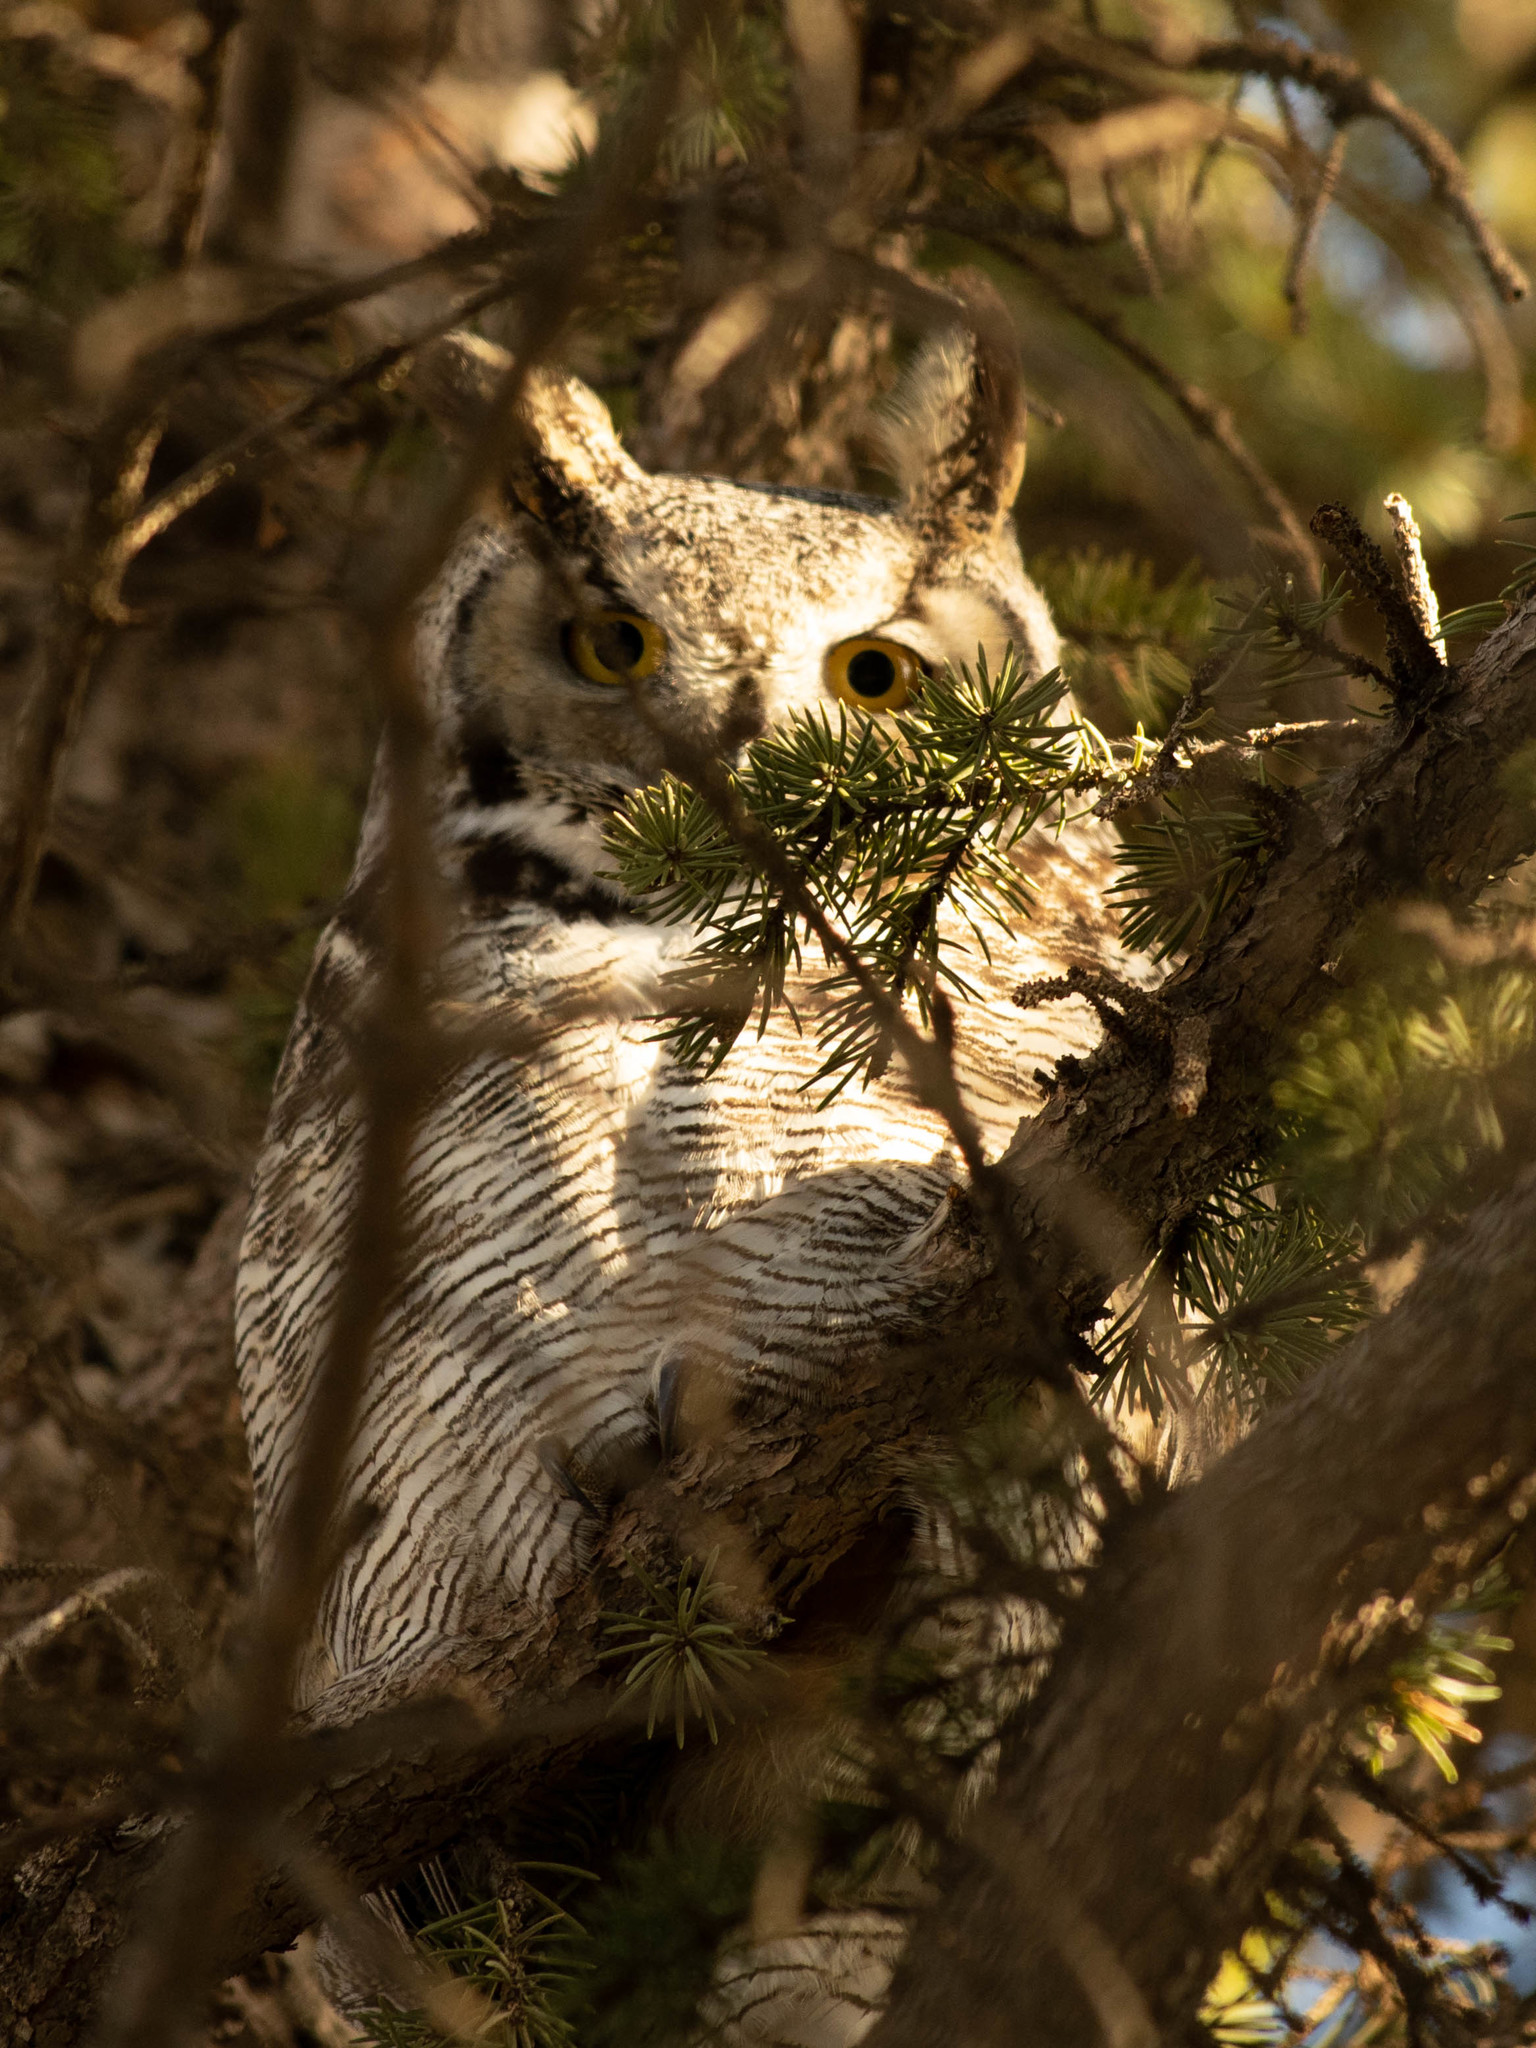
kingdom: Animalia
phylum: Chordata
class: Aves
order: Strigiformes
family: Strigidae
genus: Bubo
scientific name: Bubo virginianus
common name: Great horned owl
